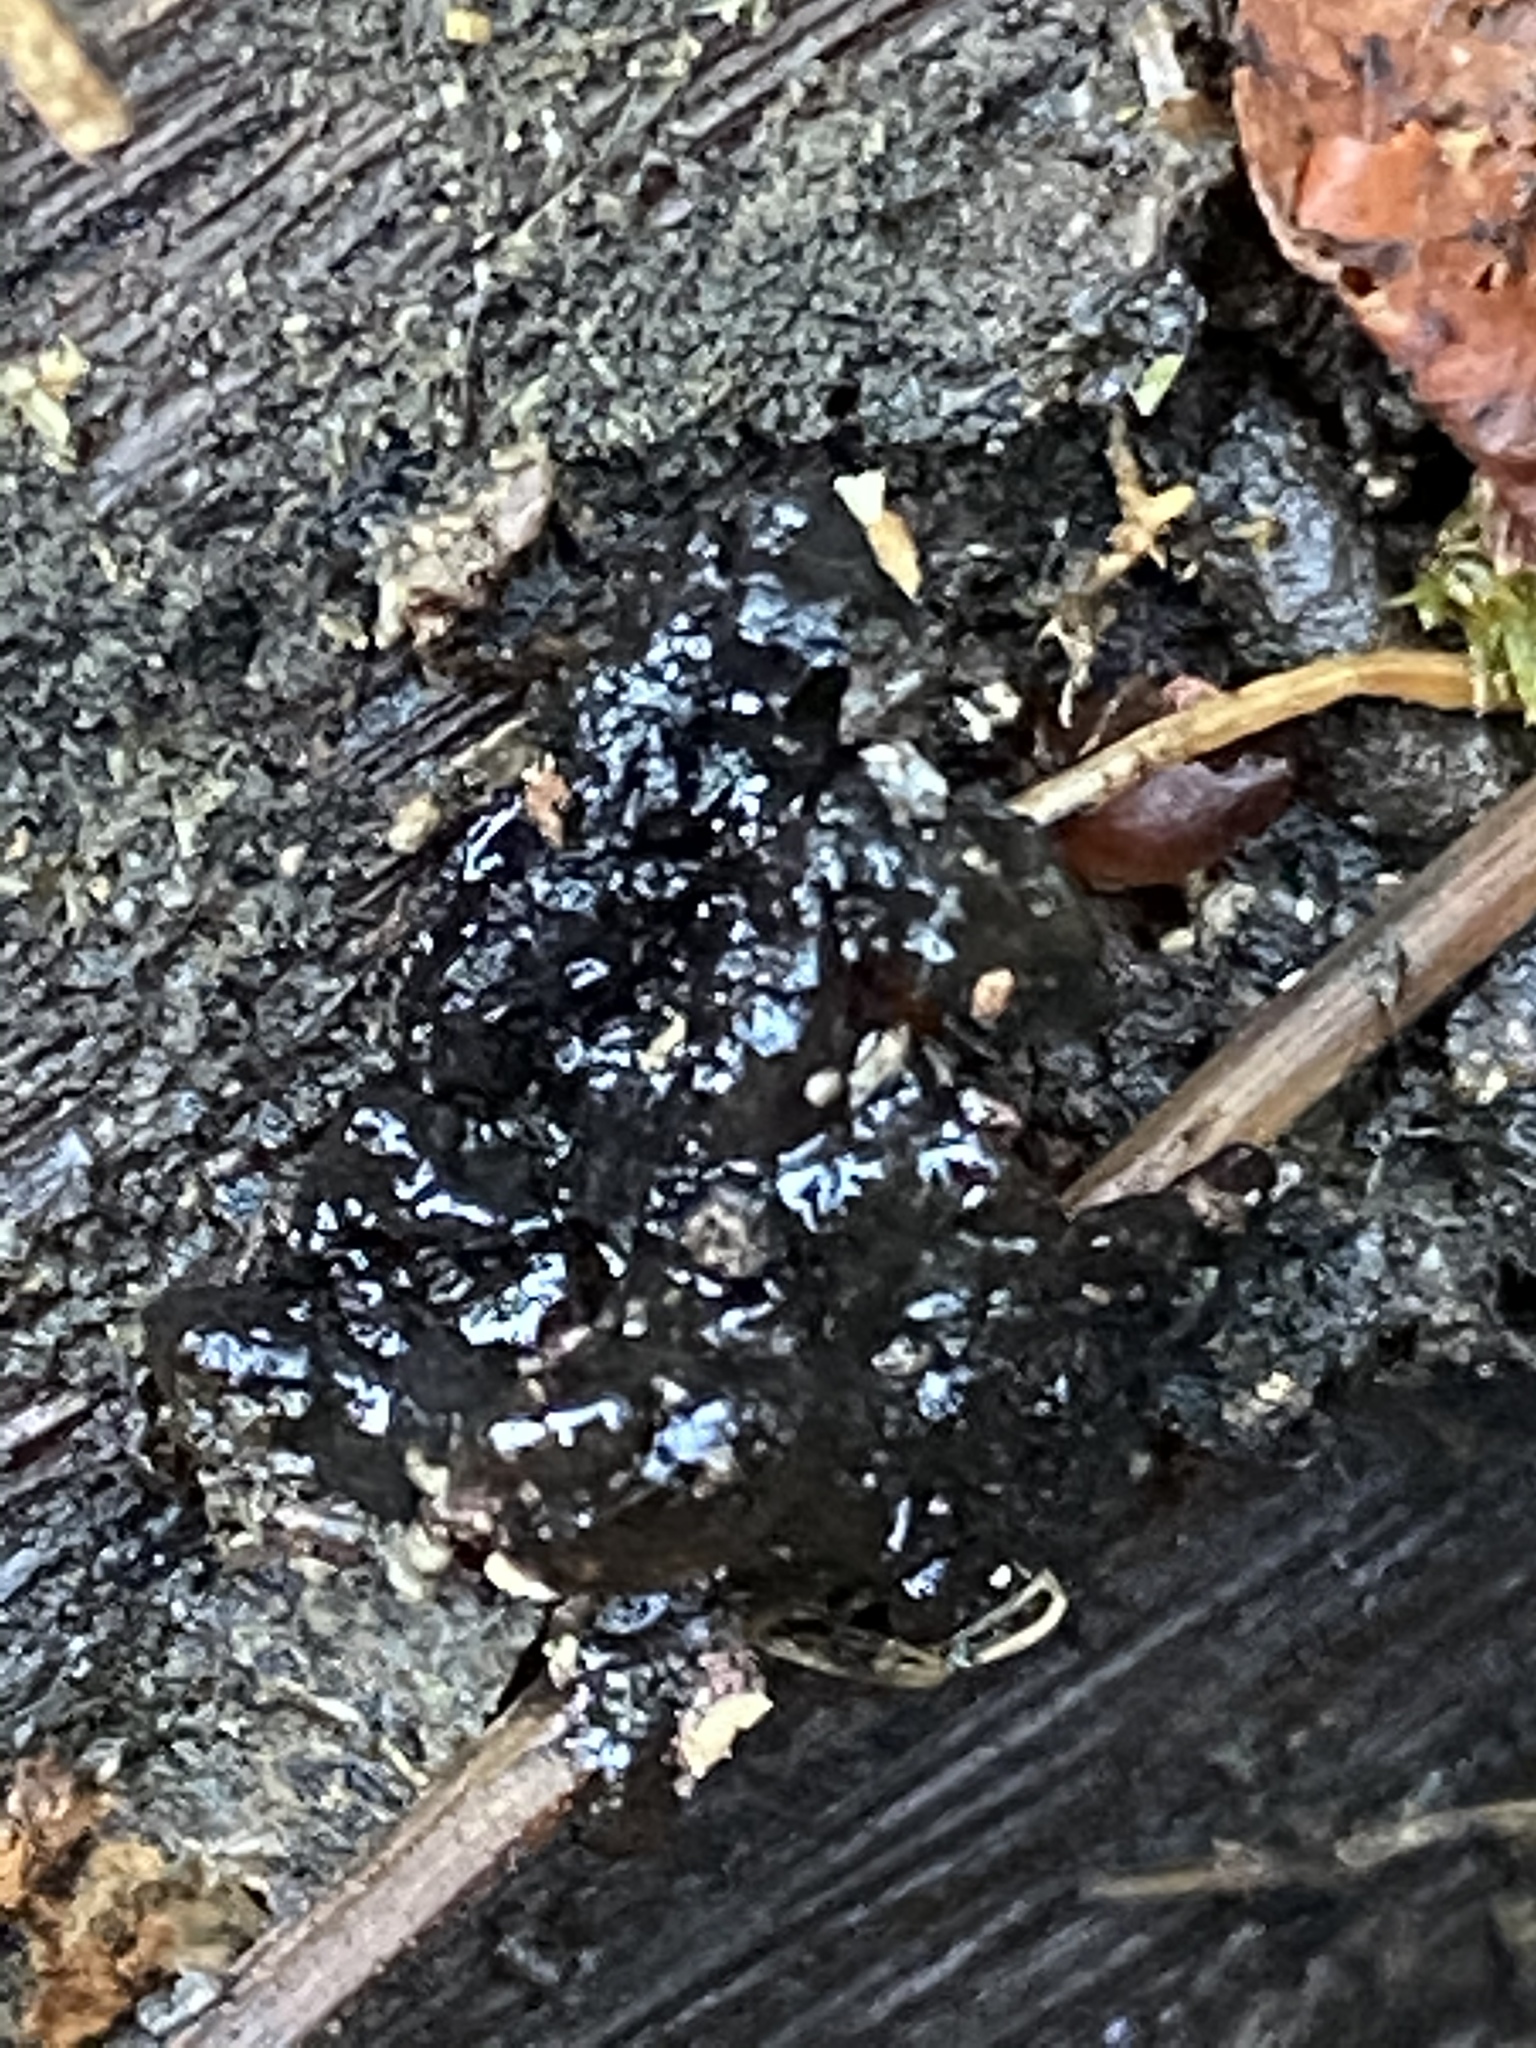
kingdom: Fungi
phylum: Basidiomycota
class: Agaricomycetes
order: Auriculariales
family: Auriculariaceae
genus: Exidia
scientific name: Exidia glandulosa
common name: Witches' butter
